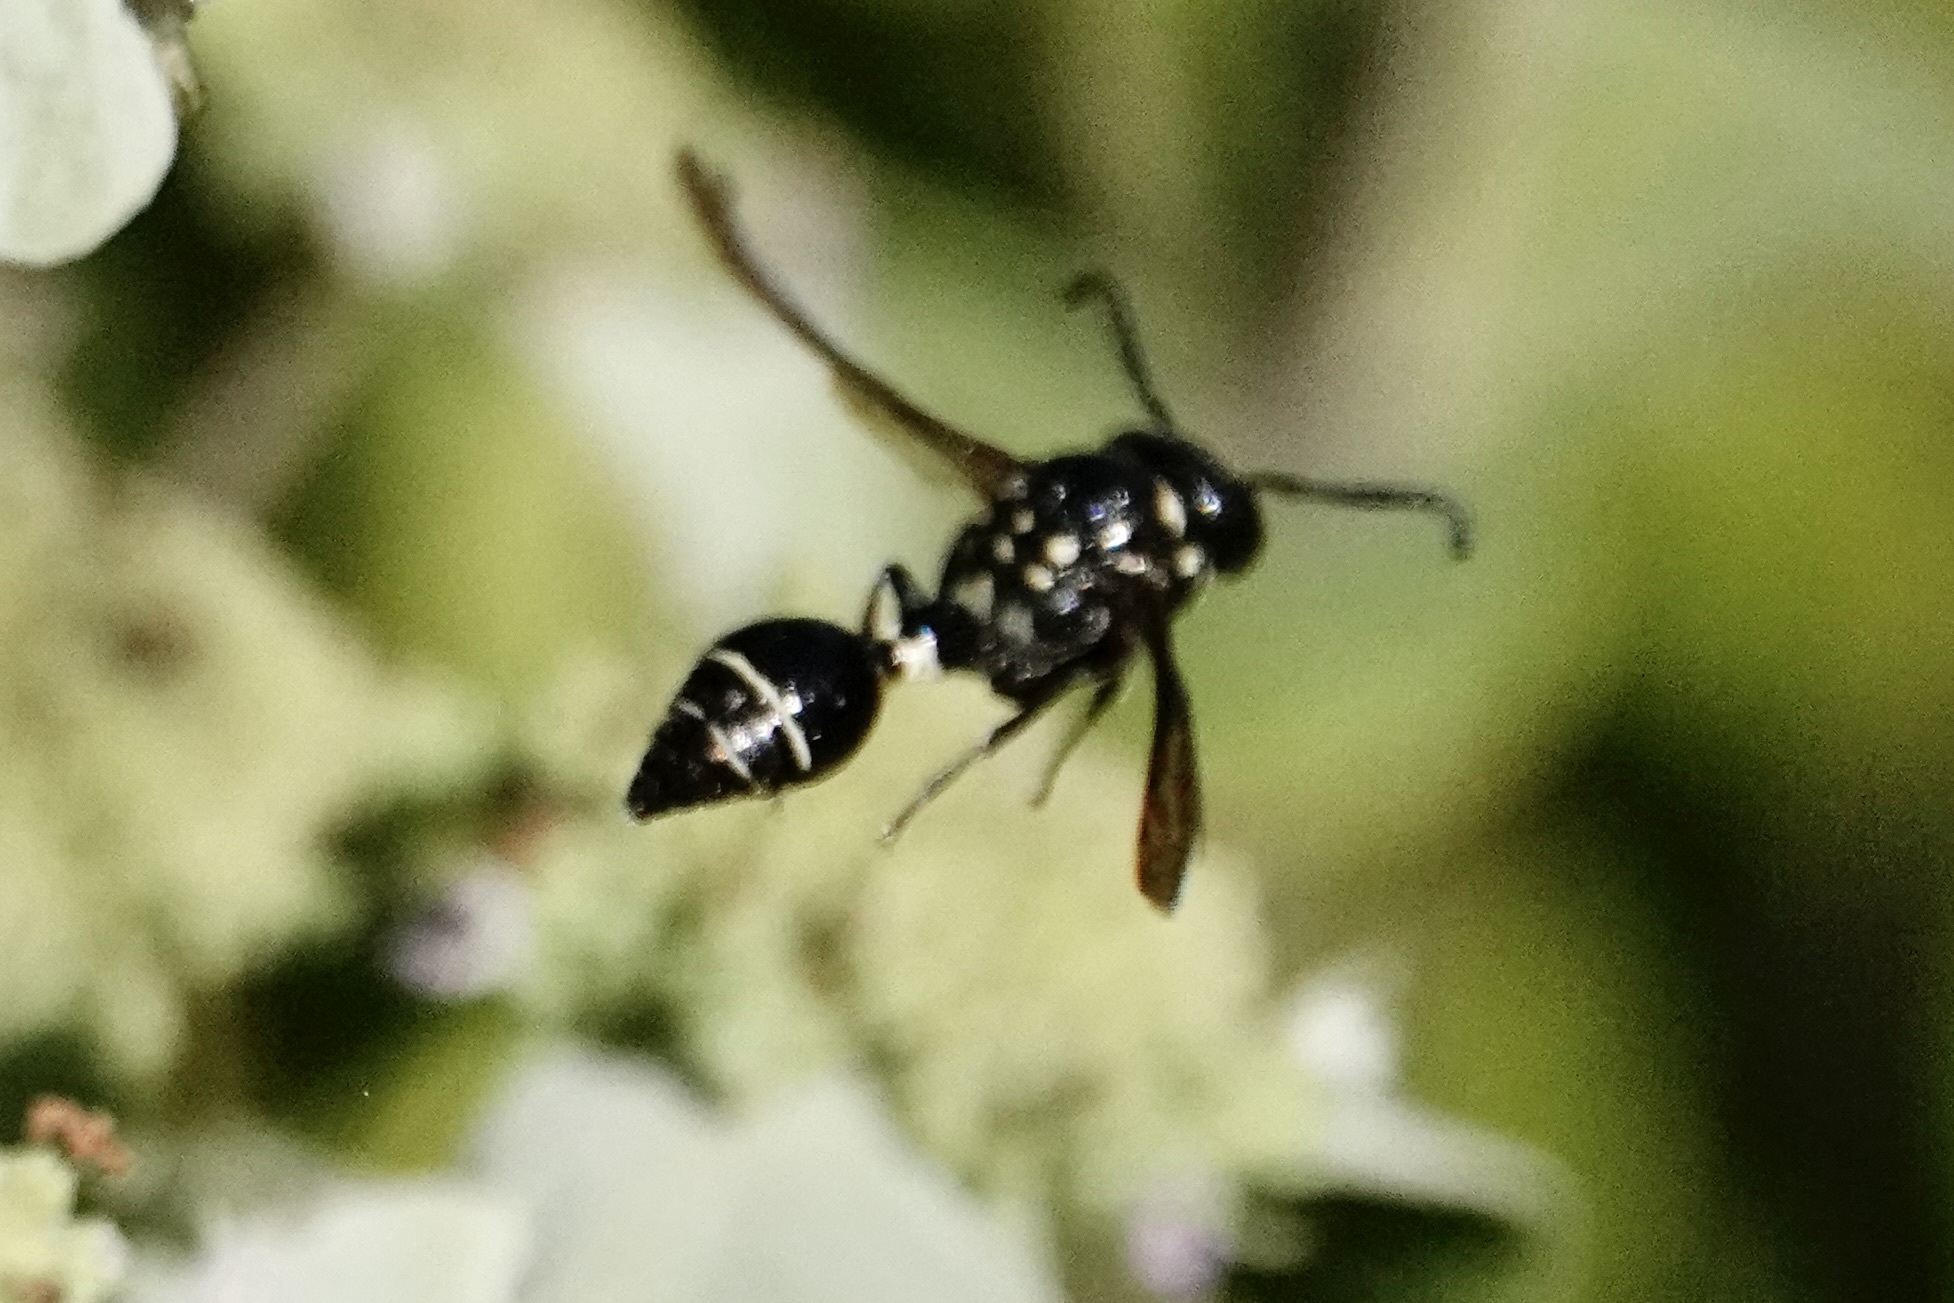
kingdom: Animalia
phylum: Arthropoda
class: Insecta
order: Hymenoptera
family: Eumenidae
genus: Zethus
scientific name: Zethus spinipes
